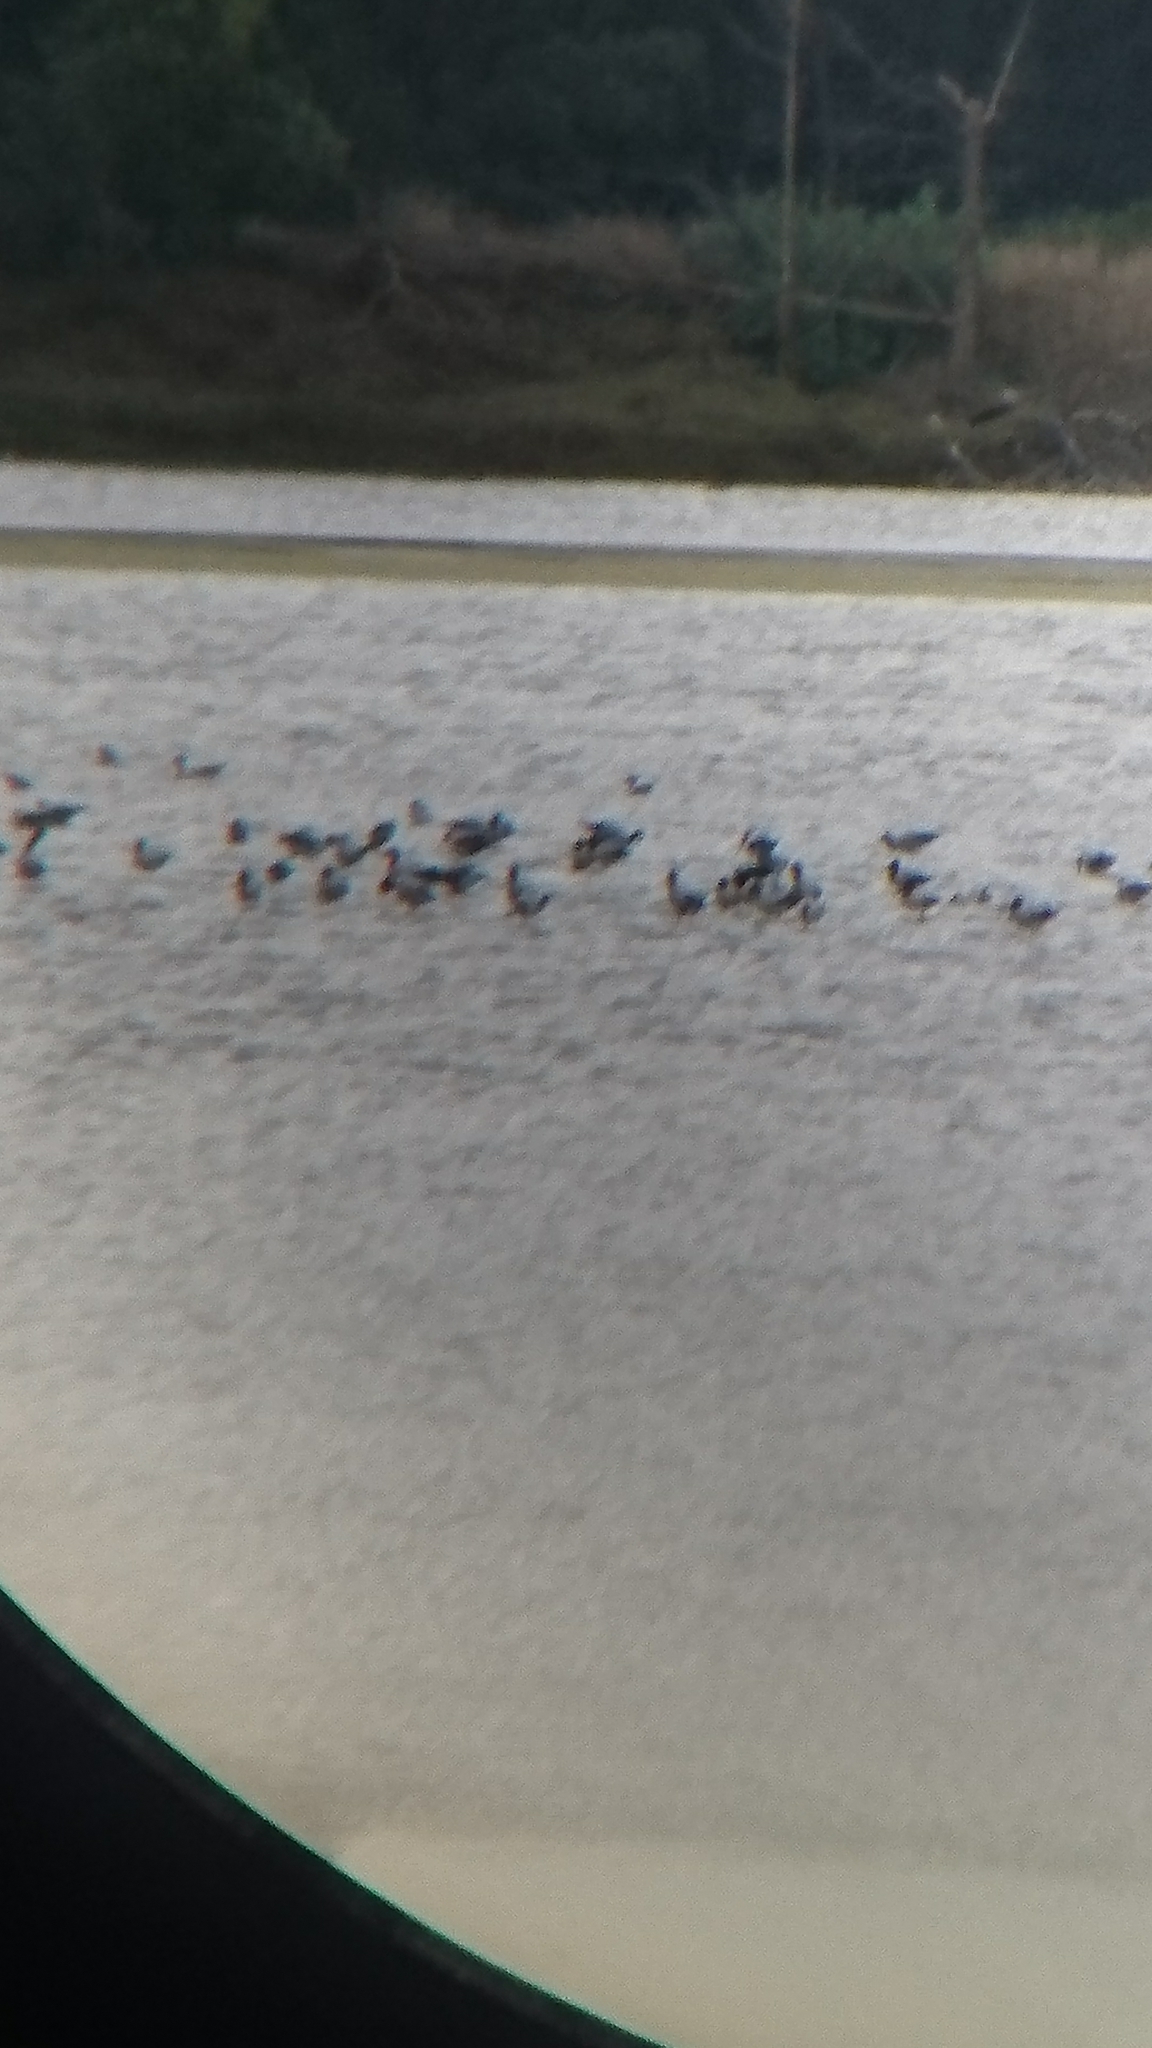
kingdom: Animalia
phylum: Chordata
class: Aves
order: Charadriiformes
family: Recurvirostridae
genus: Recurvirostra
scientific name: Recurvirostra novaehollandiae
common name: Red-necked avocet
